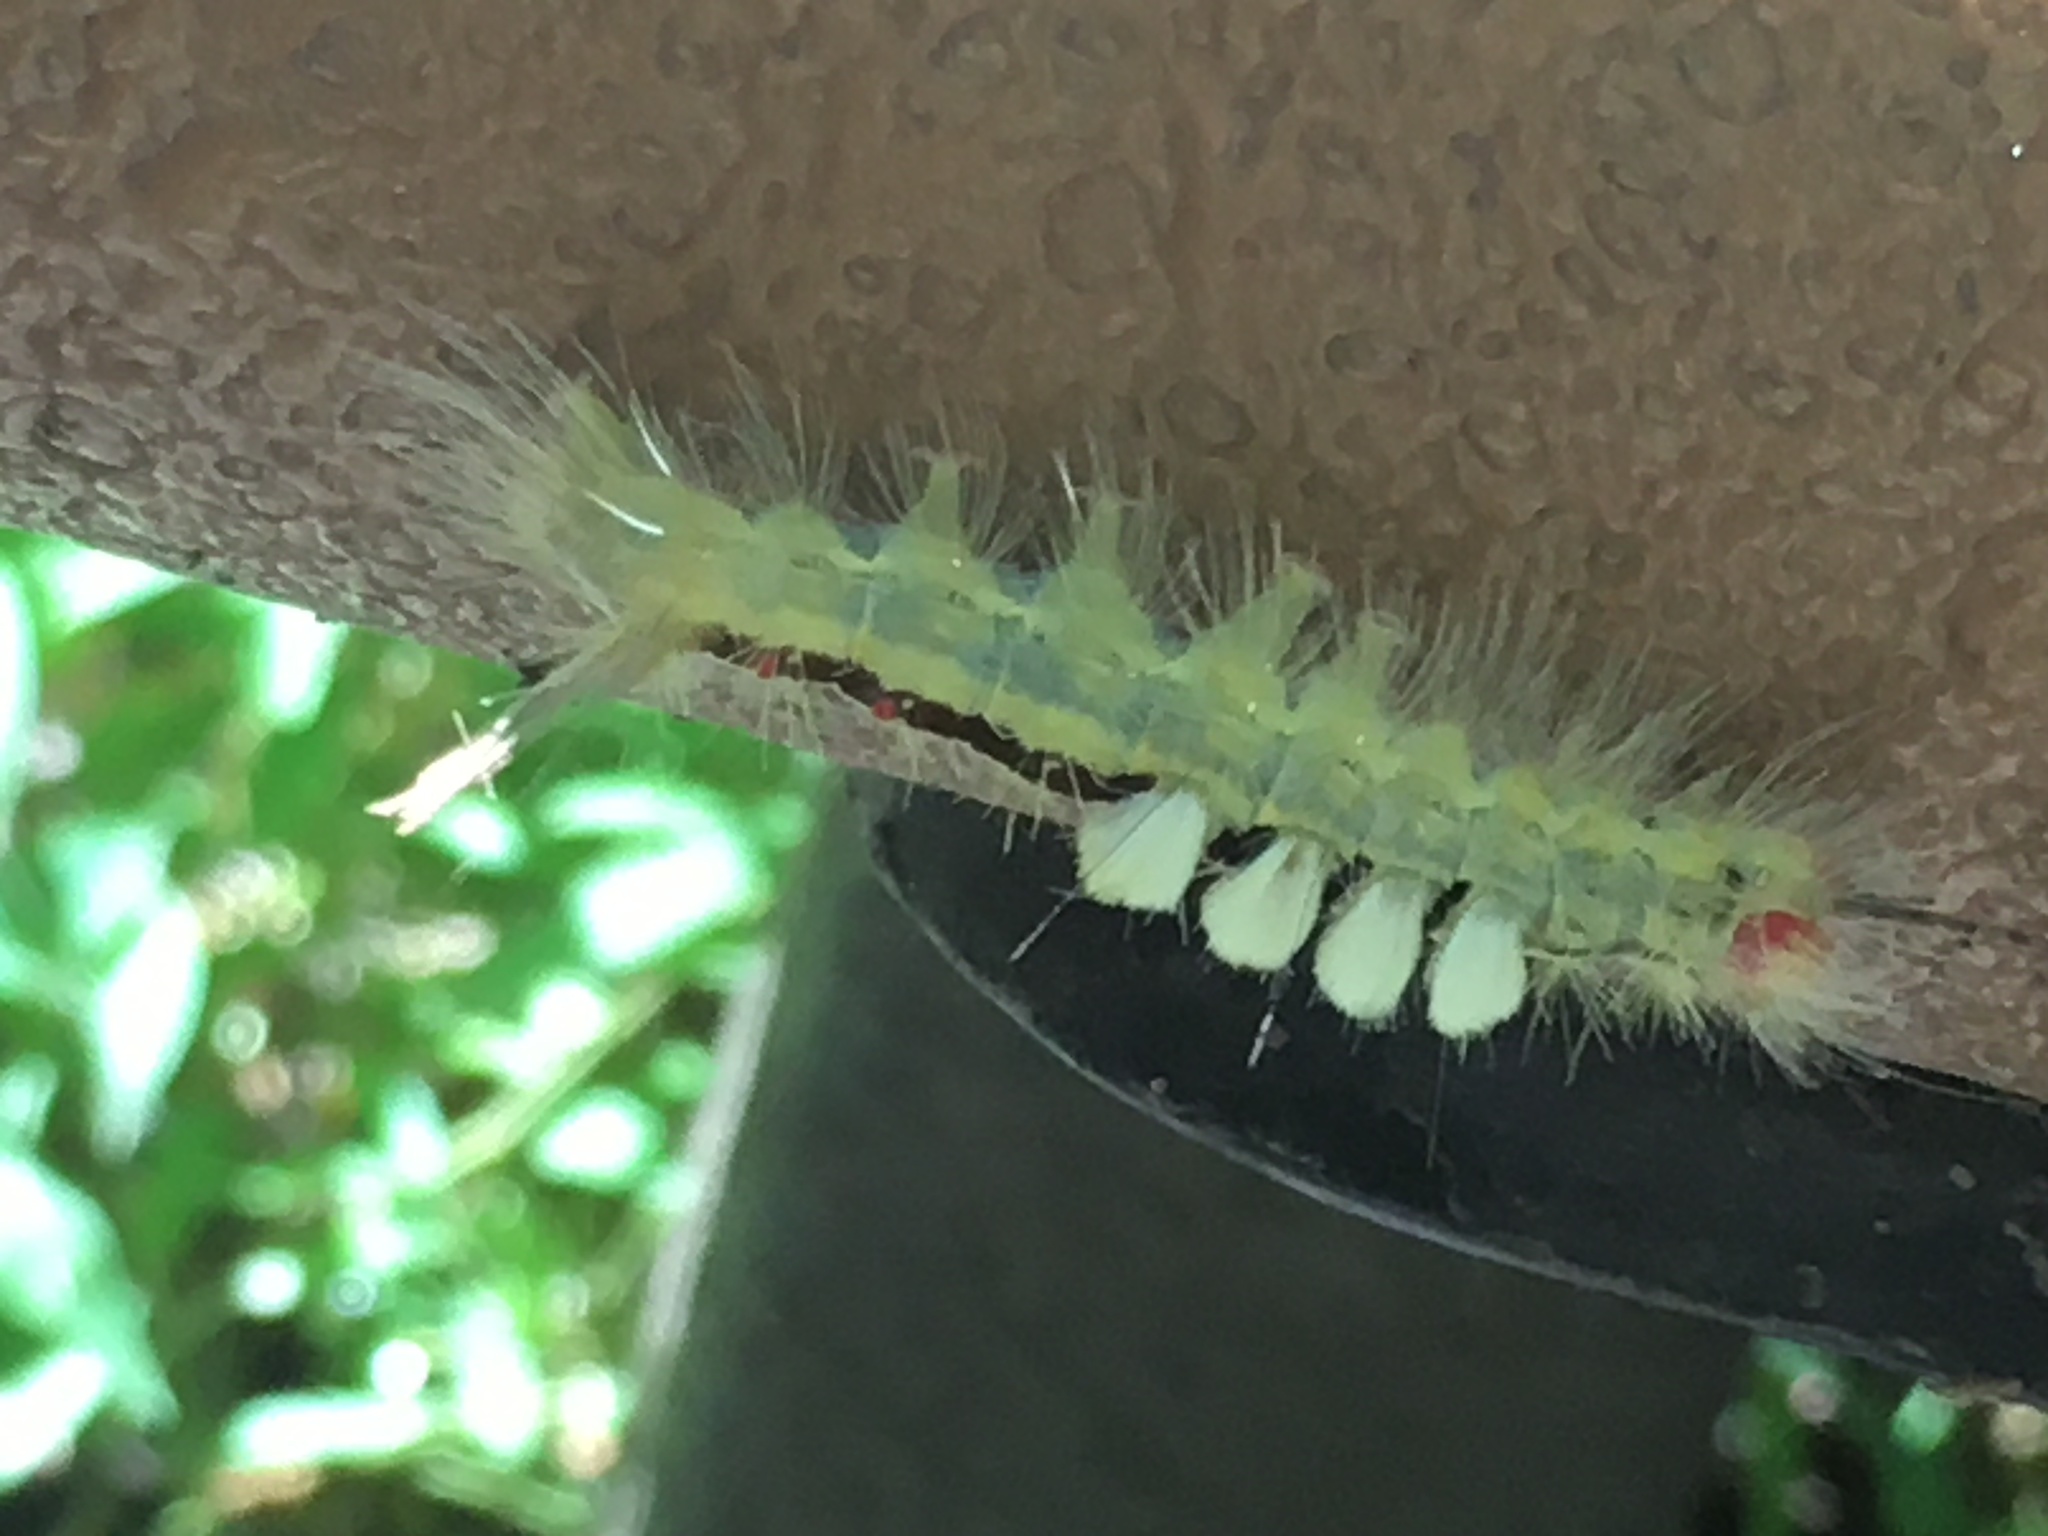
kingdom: Animalia
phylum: Arthropoda
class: Insecta
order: Lepidoptera
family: Erebidae
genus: Orgyia
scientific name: Orgyia leucostigma
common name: White-marked tussock moth
